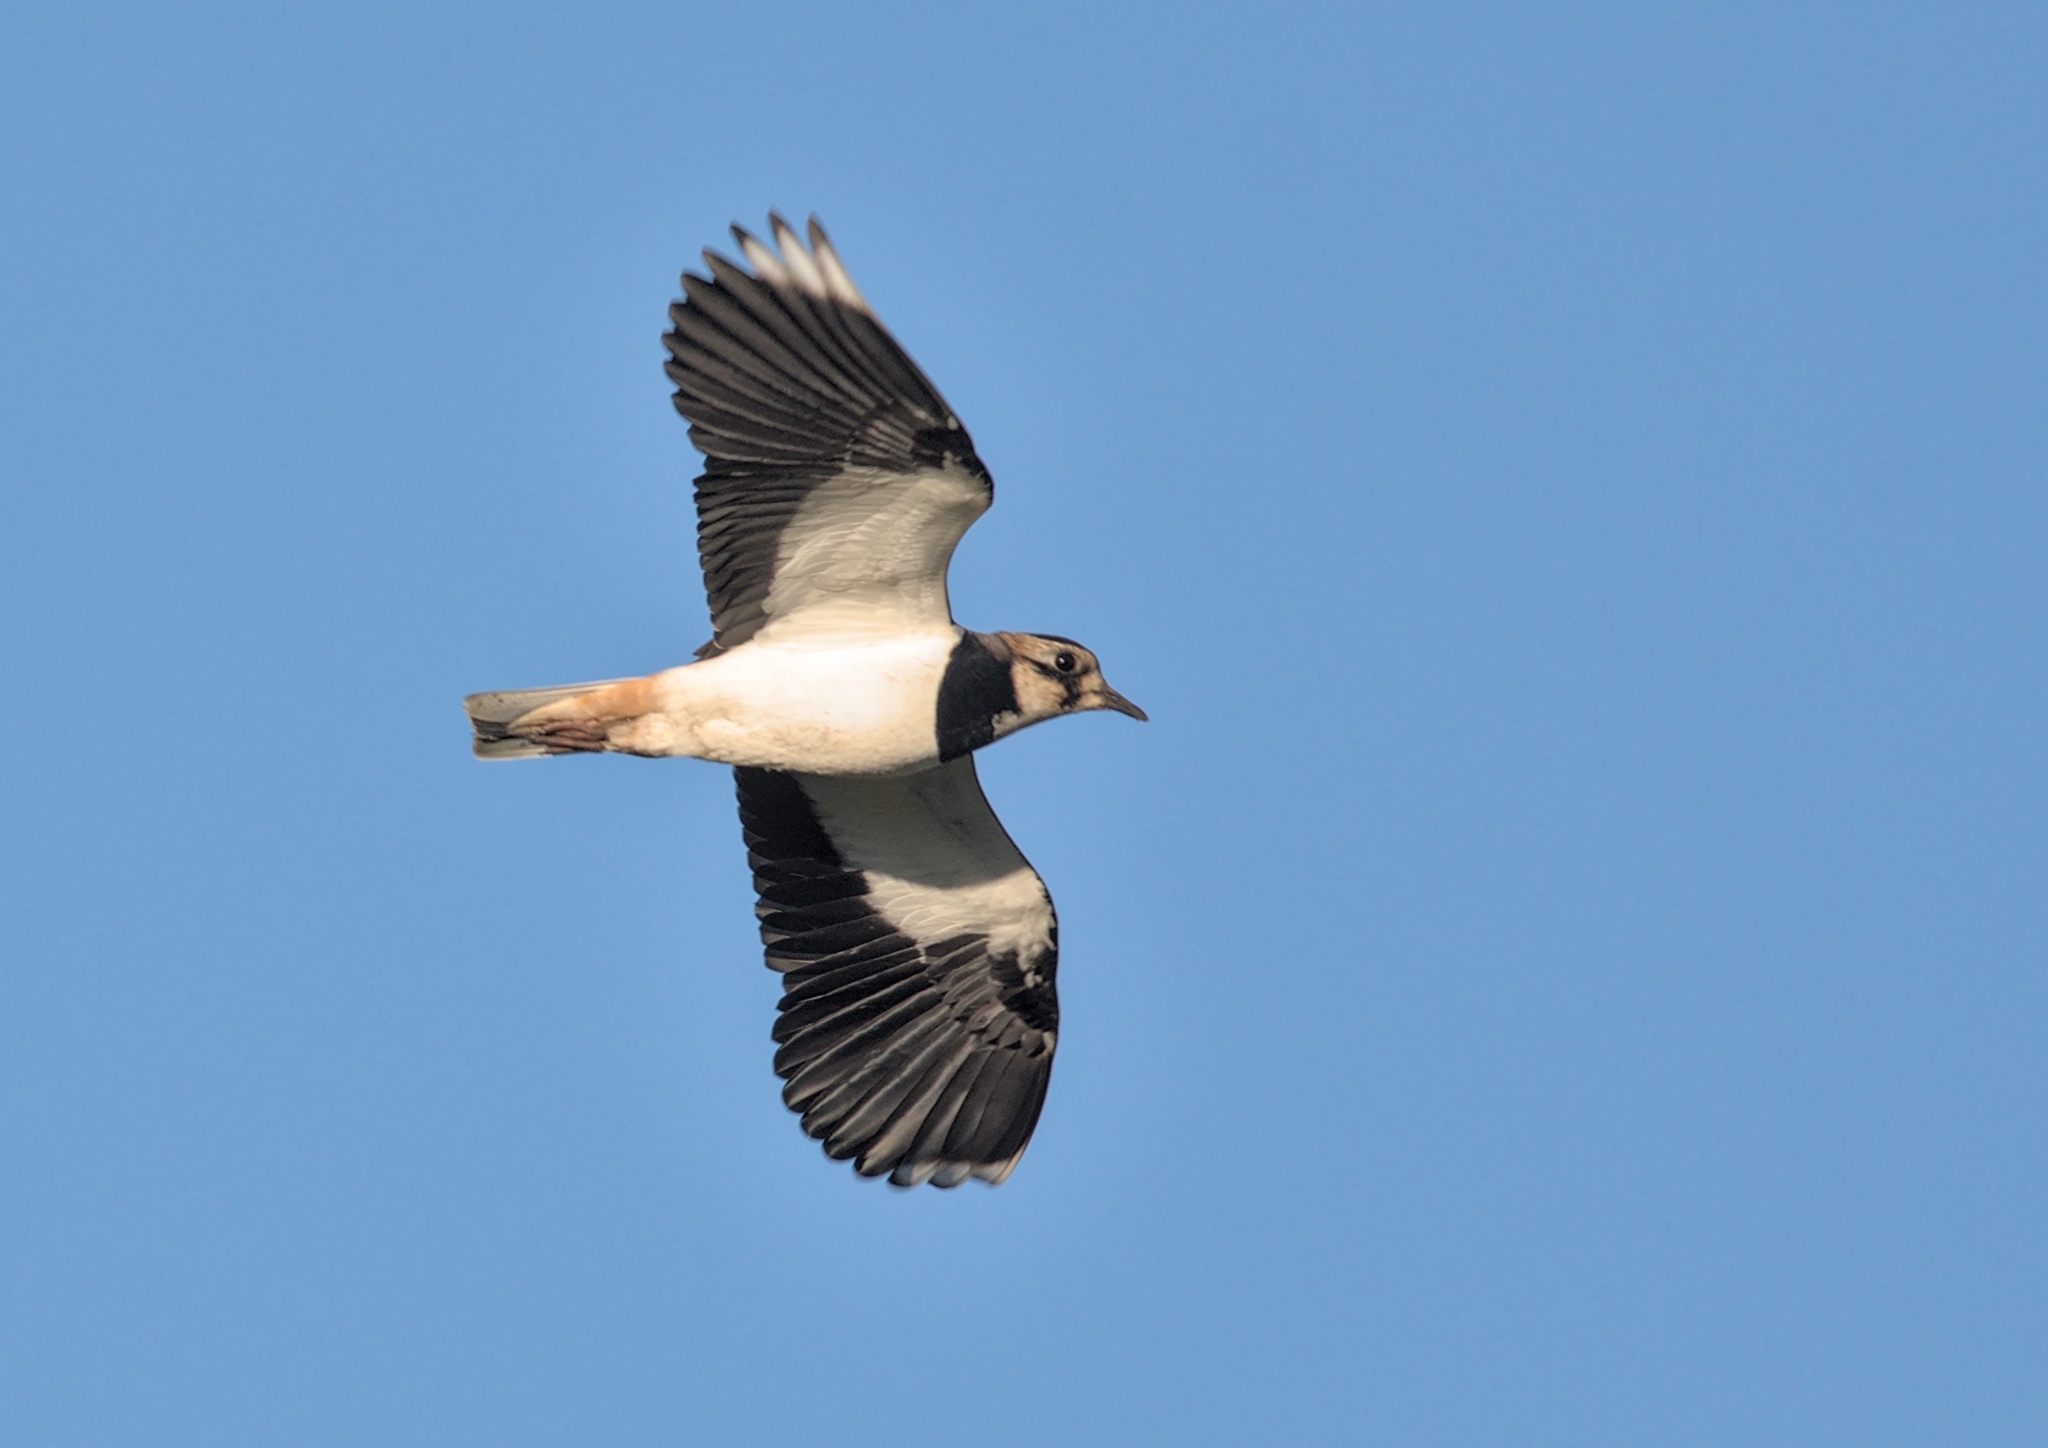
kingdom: Animalia
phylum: Chordata
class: Aves
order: Charadriiformes
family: Charadriidae
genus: Vanellus
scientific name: Vanellus vanellus
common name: Northern lapwing
